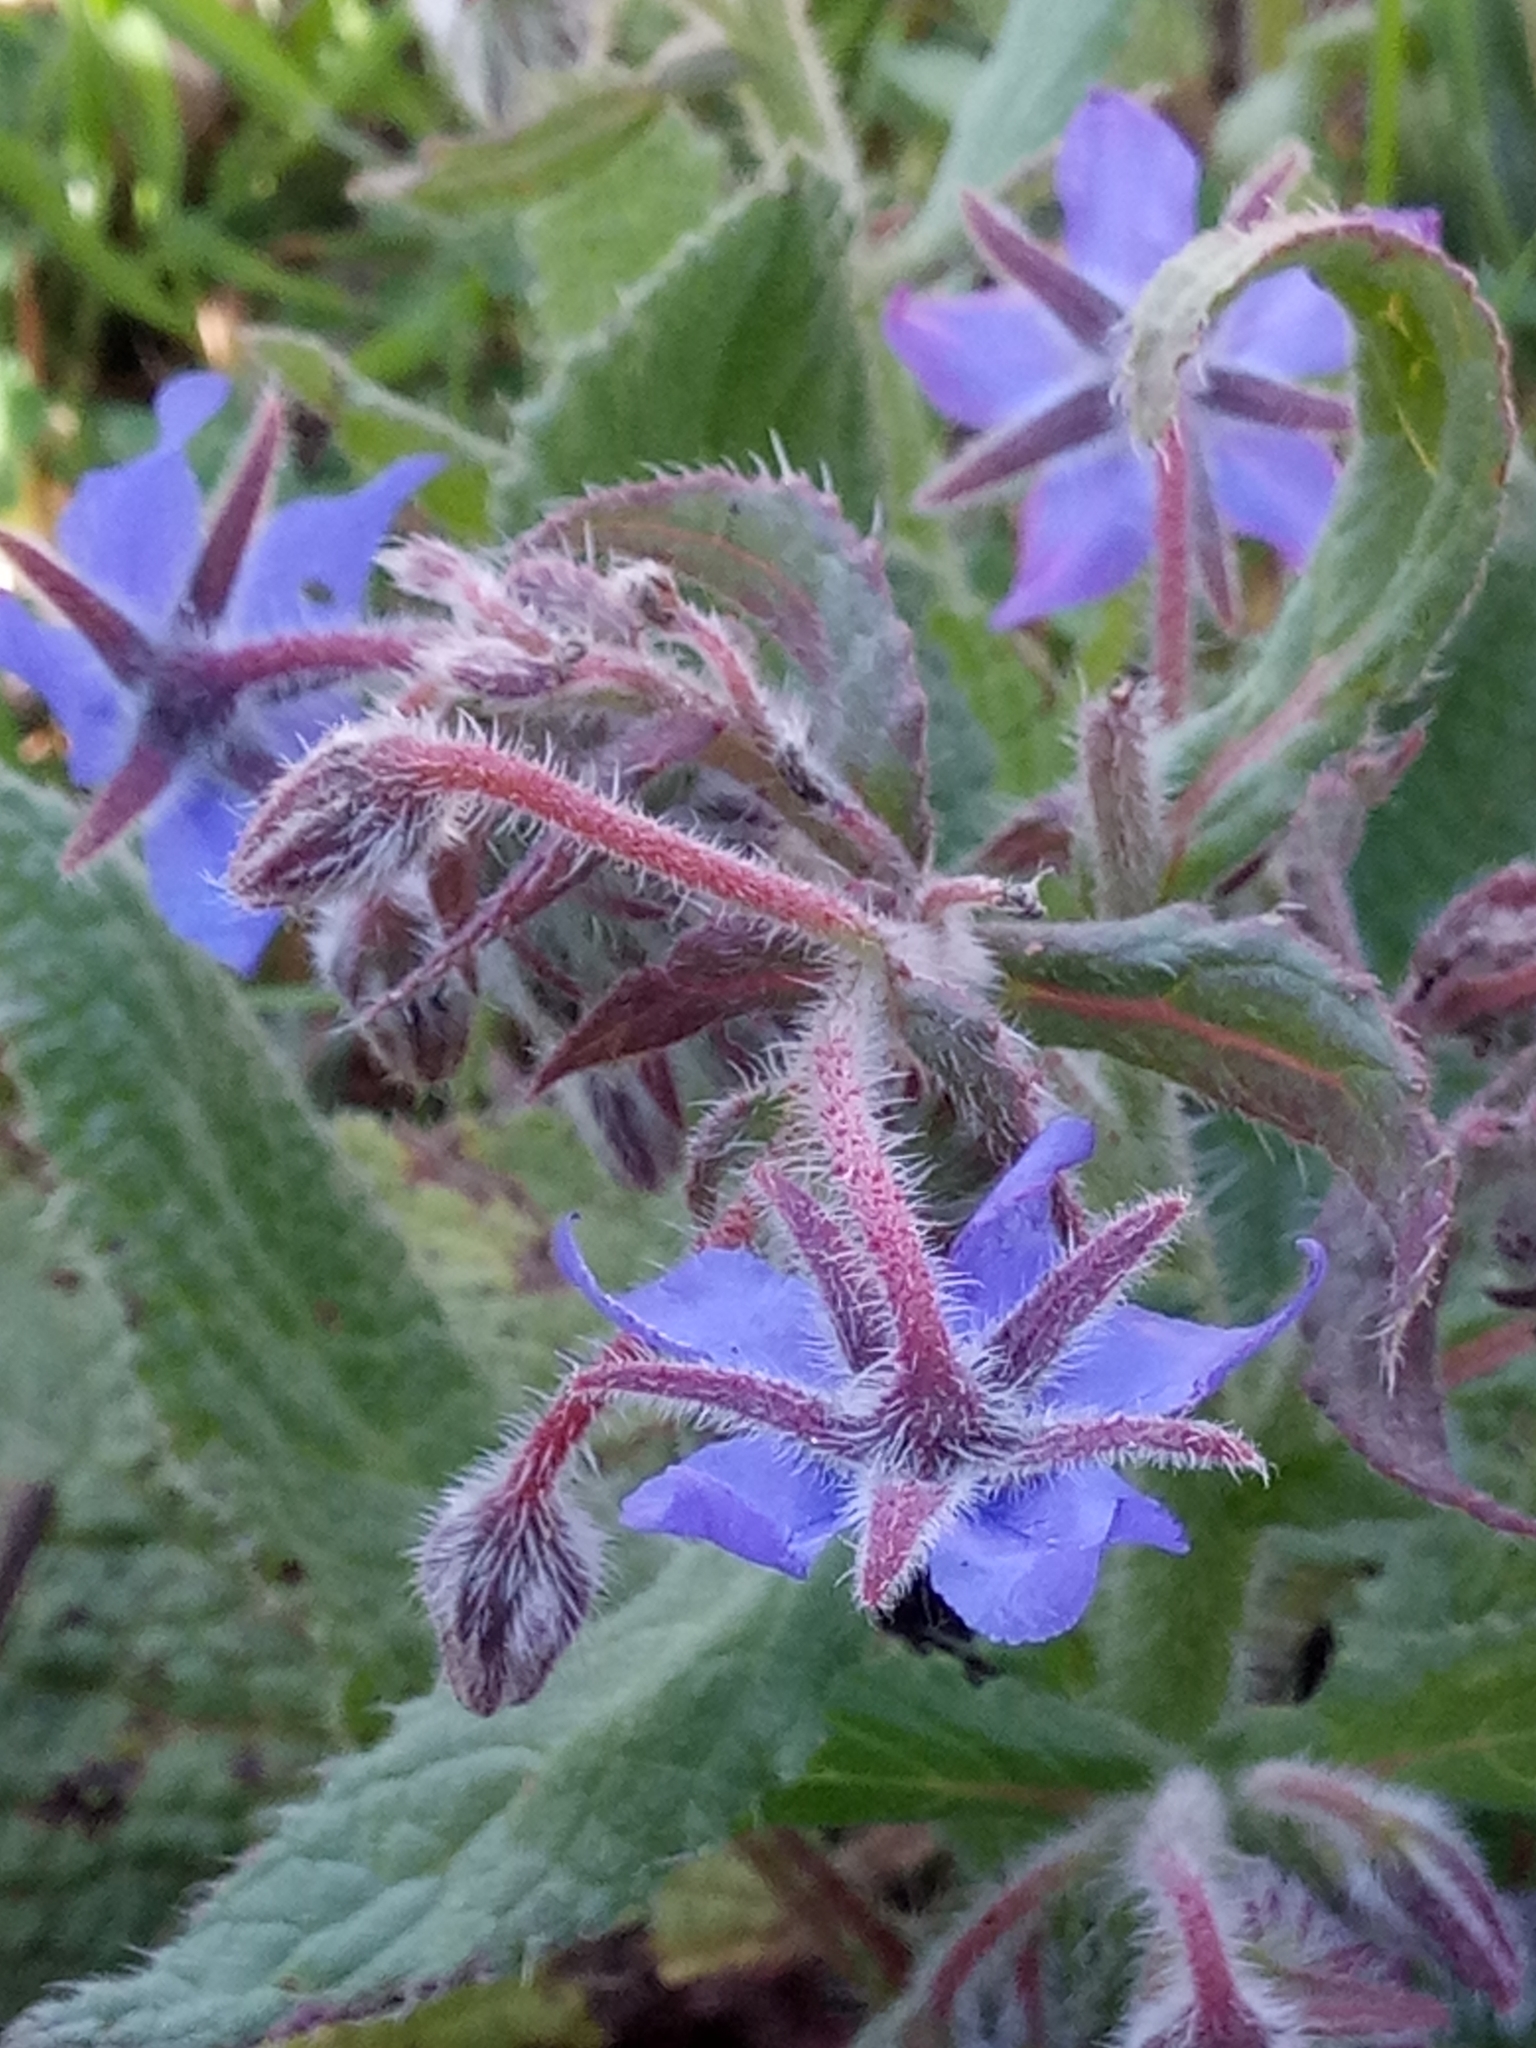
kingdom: Plantae
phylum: Tracheophyta
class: Magnoliopsida
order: Boraginales
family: Boraginaceae
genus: Borago
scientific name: Borago officinalis
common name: Borage
